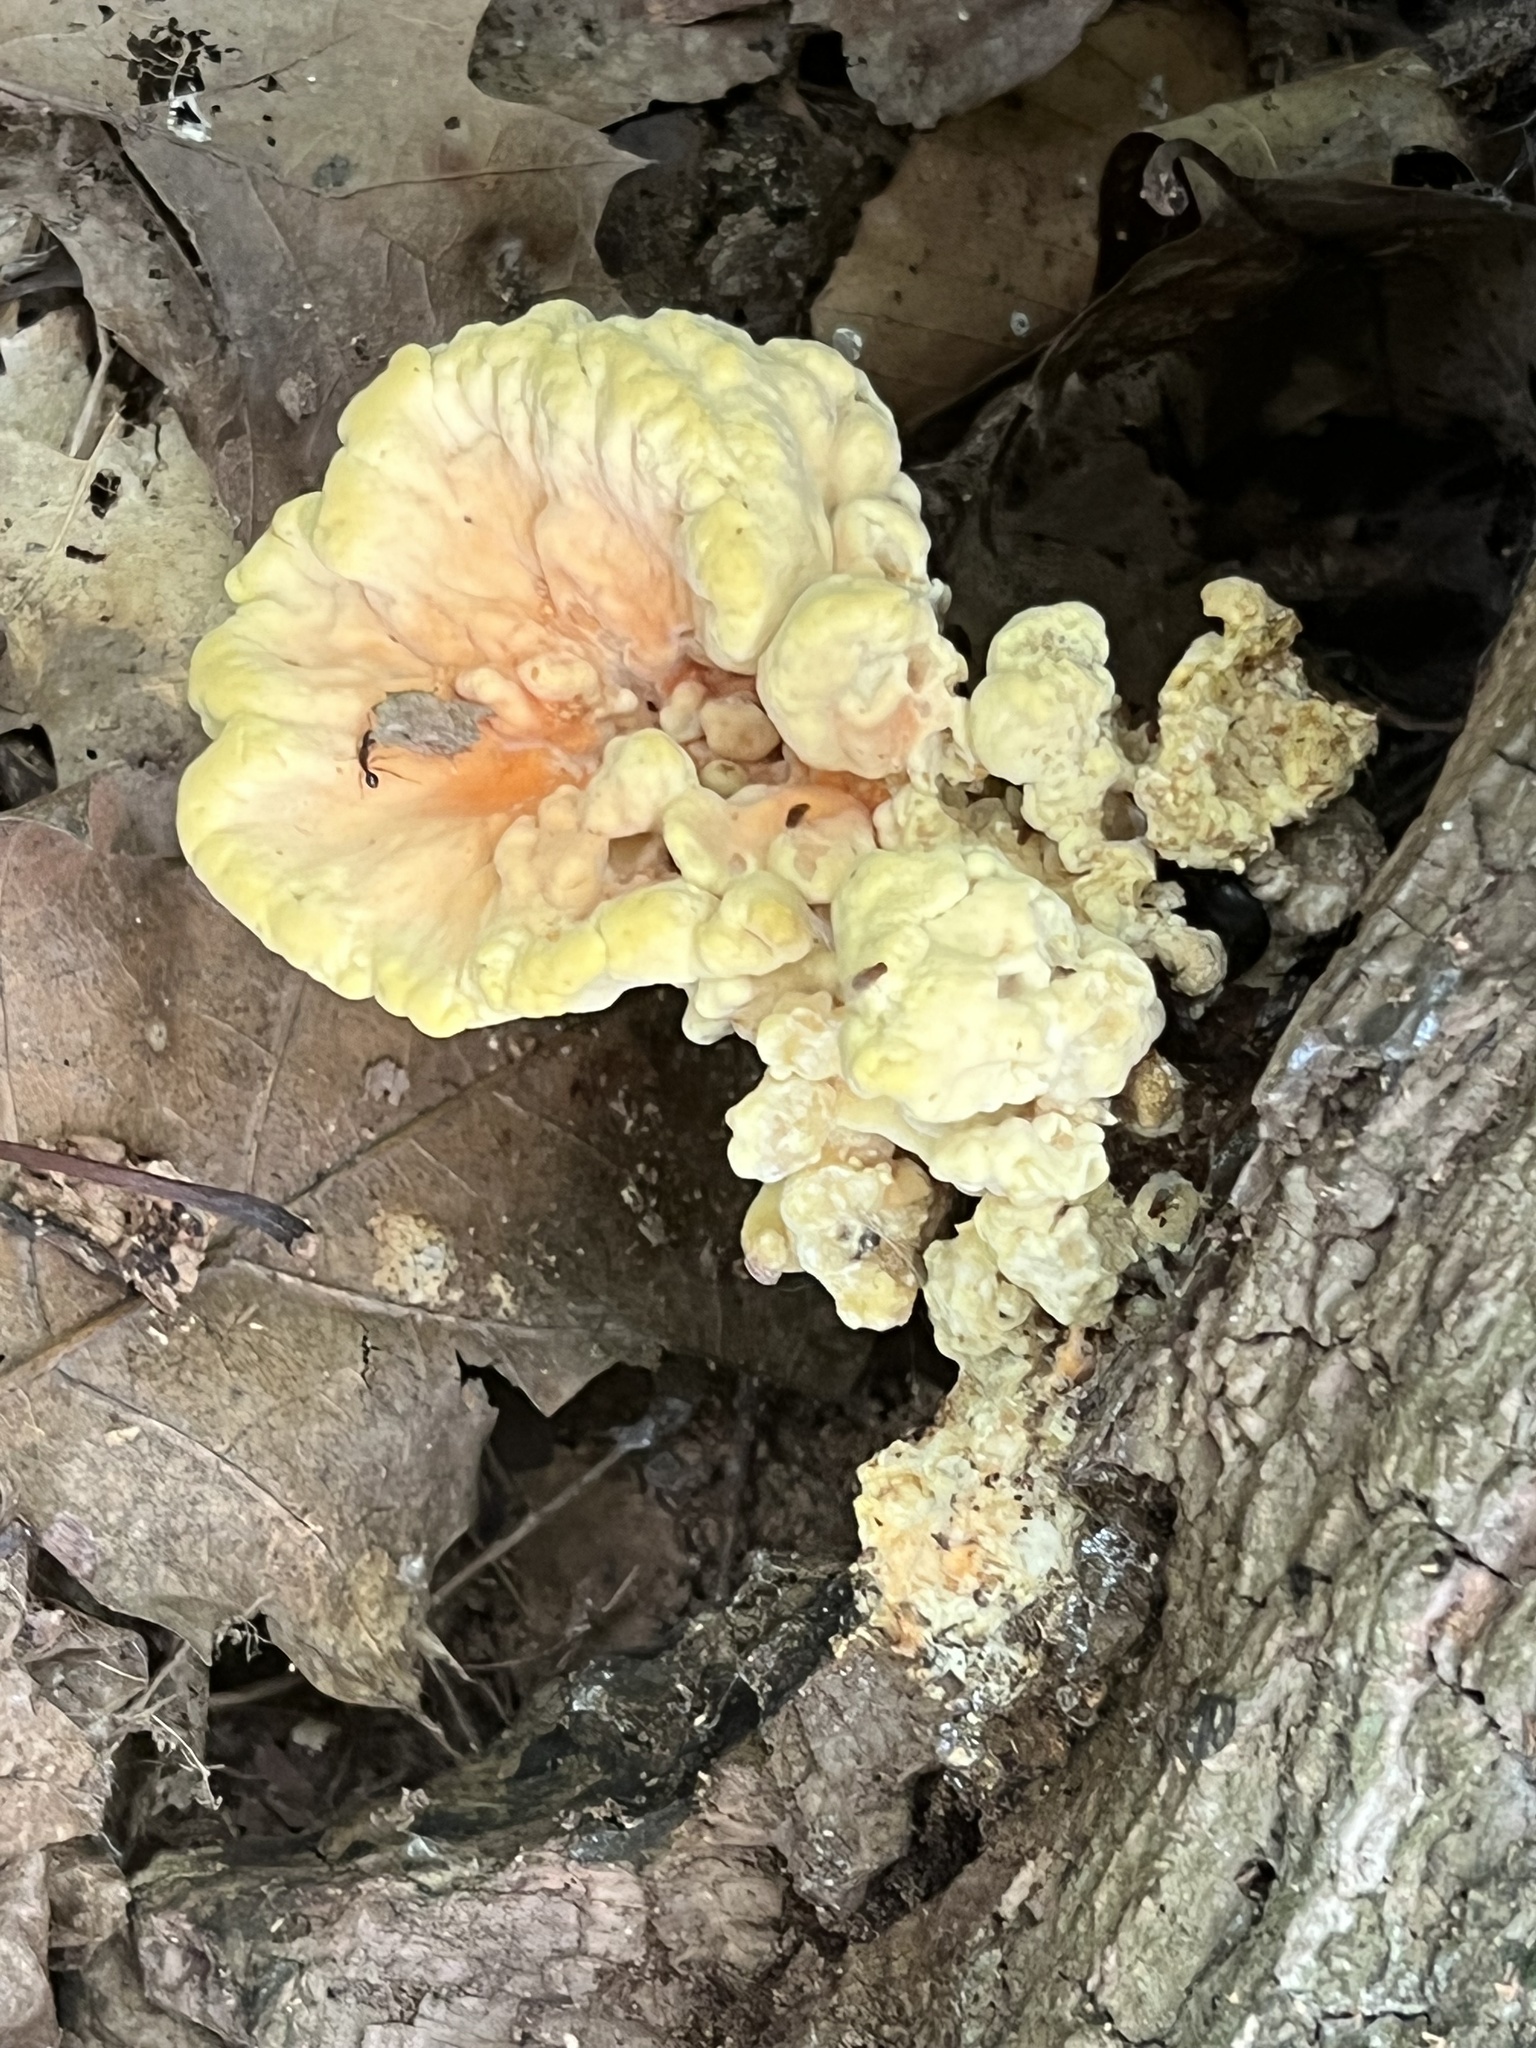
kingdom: Fungi
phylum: Basidiomycota
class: Agaricomycetes
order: Polyporales
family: Laetiporaceae
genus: Laetiporus
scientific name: Laetiporus sulphureus
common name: Chicken of the woods
